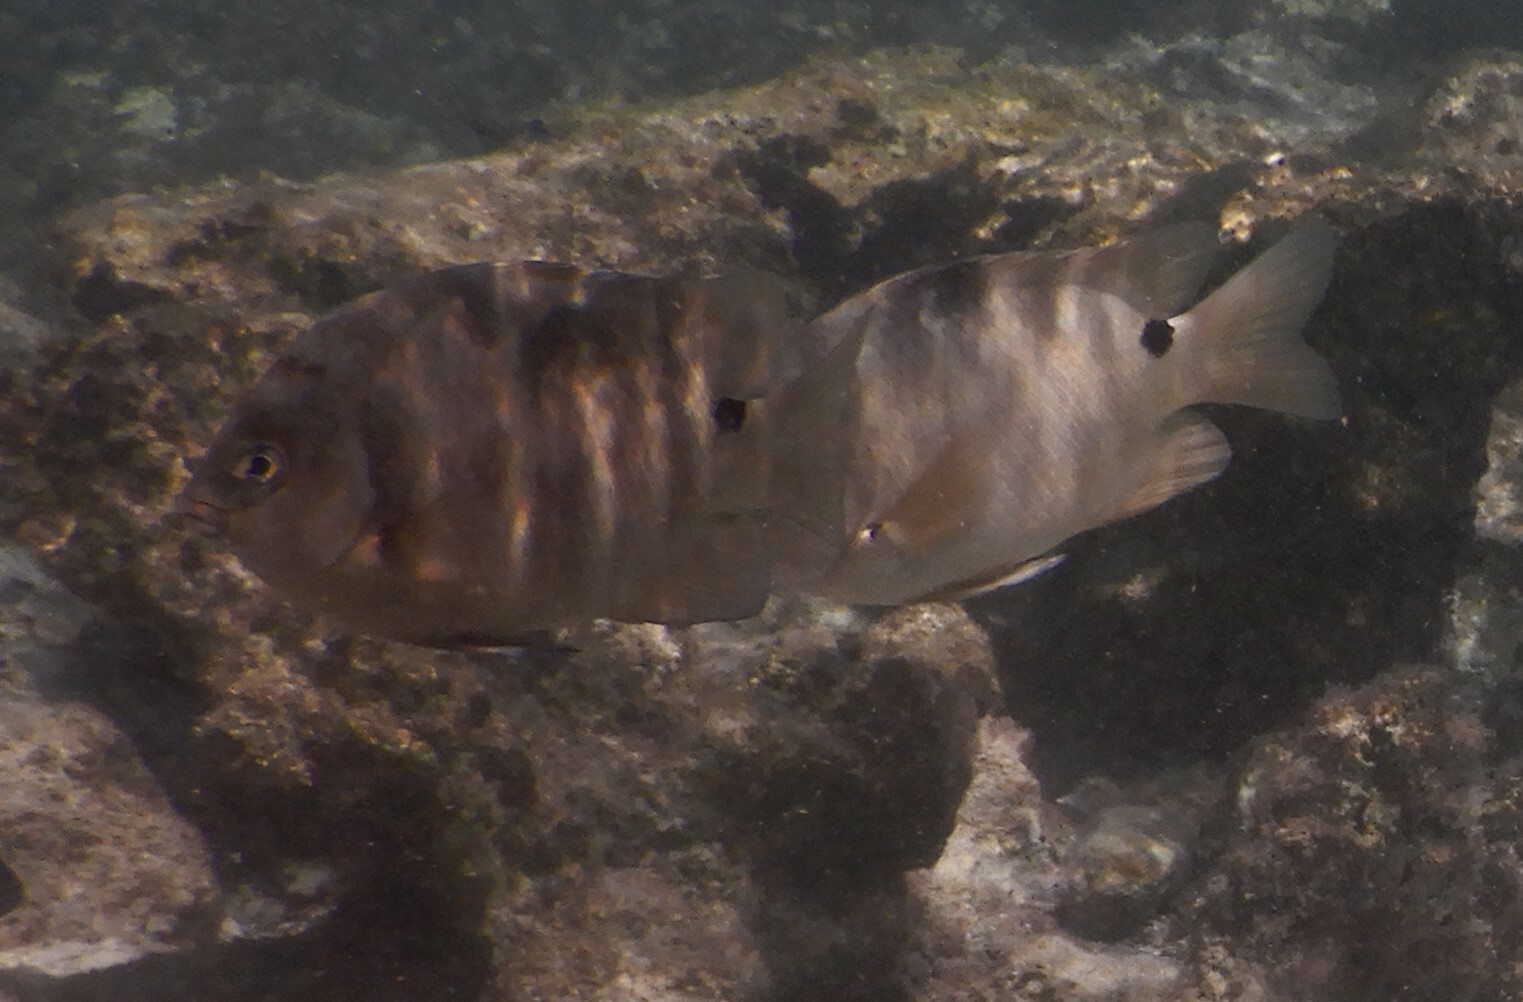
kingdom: Animalia
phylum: Chordata
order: Perciformes
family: Pomacentridae
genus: Abudefduf
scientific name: Abudefduf sordidus
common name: Blackspot sergeant
